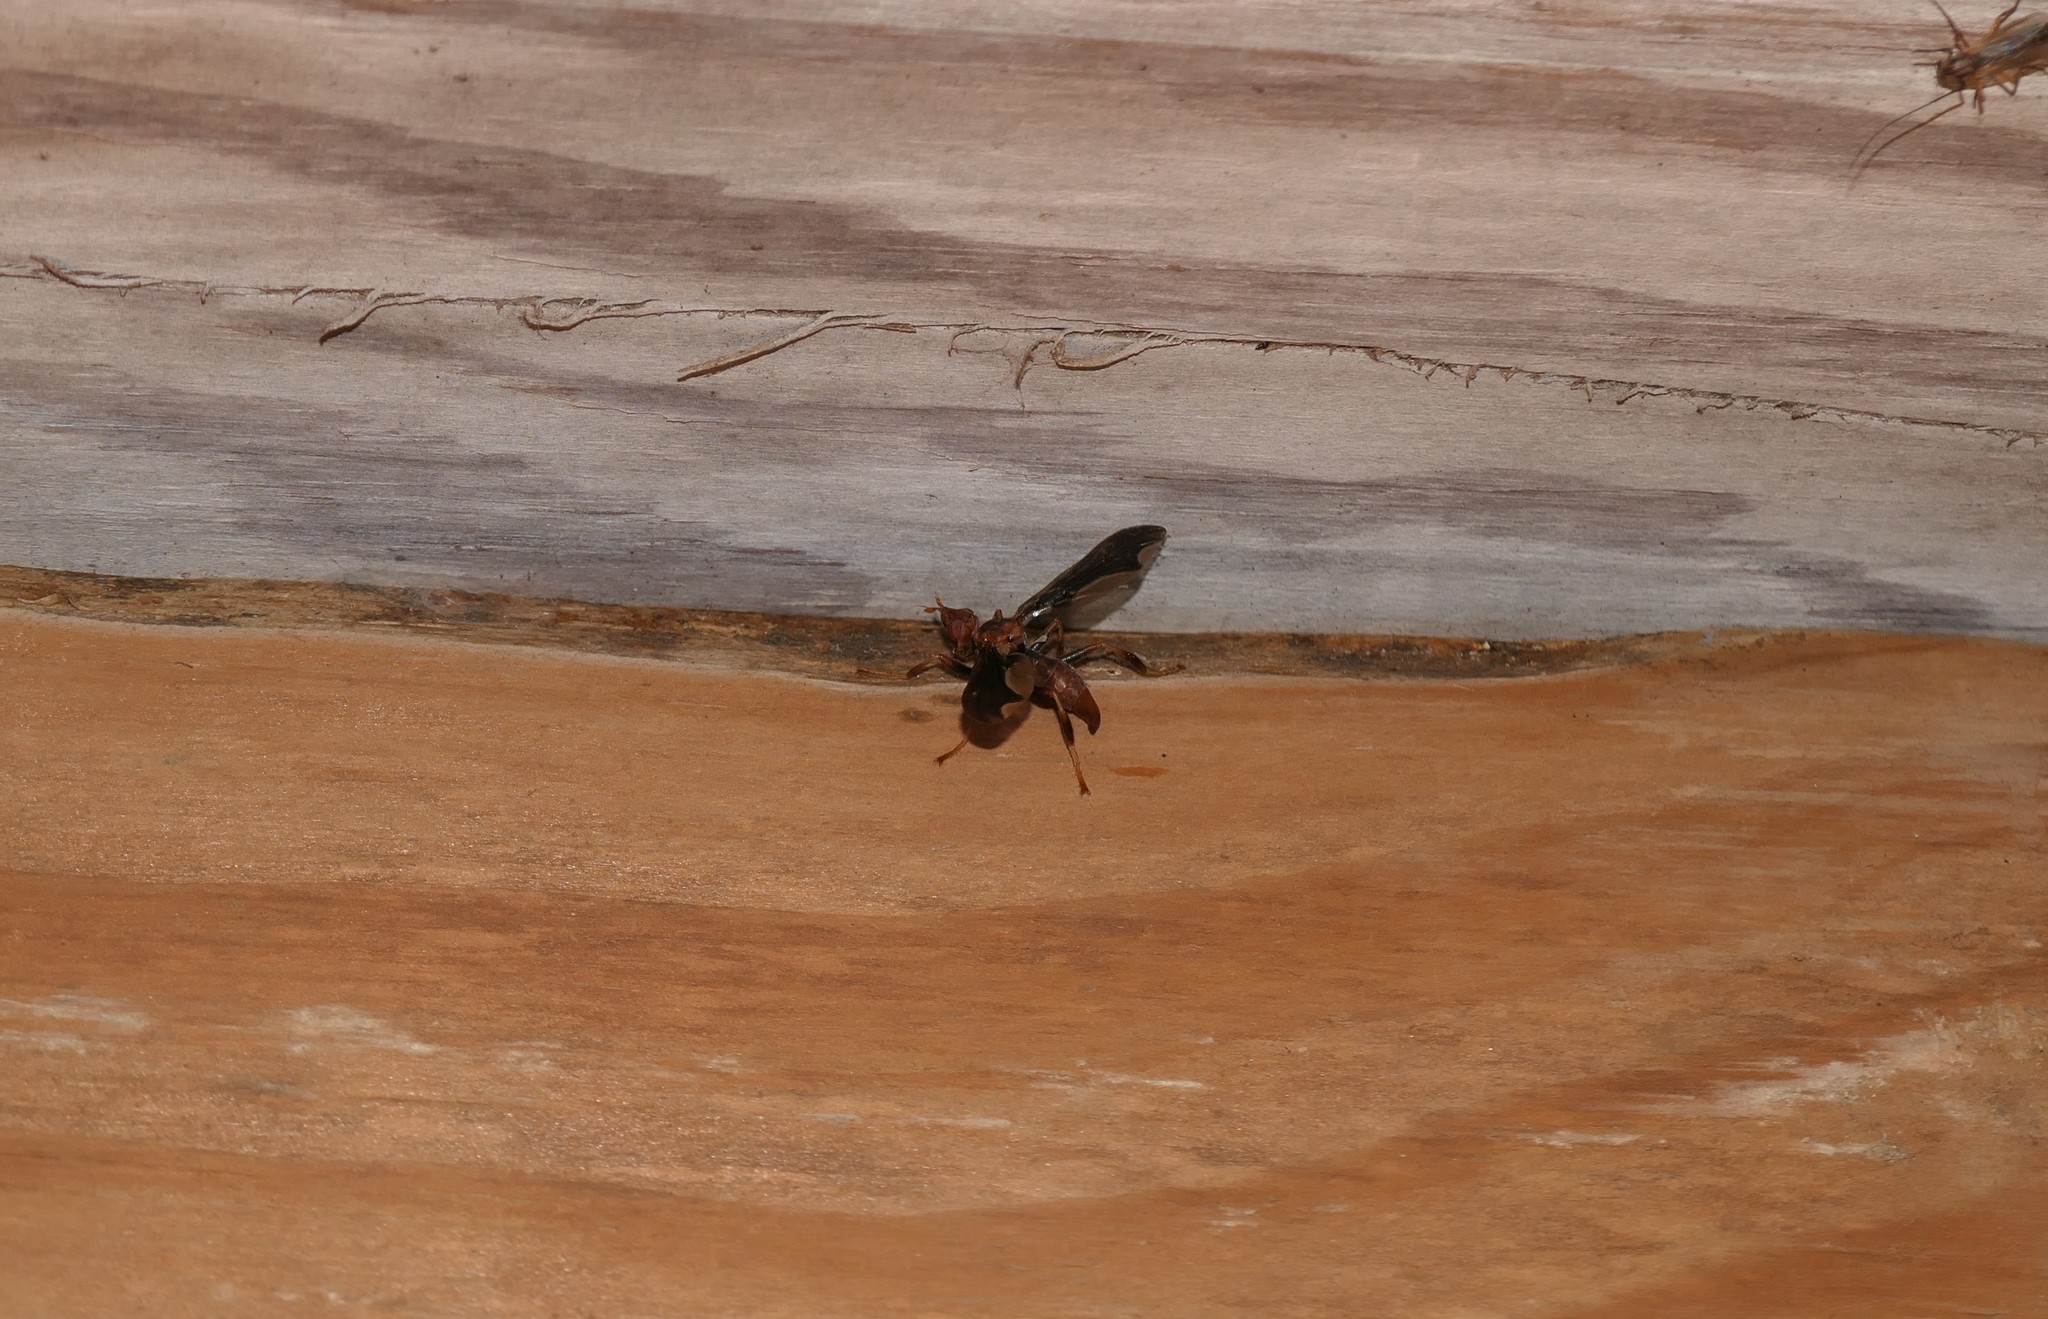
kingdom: Animalia
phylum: Arthropoda
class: Insecta
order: Diptera
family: Pyrgotidae
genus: Pyrgota
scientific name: Pyrgota undata
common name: Waved light fly
